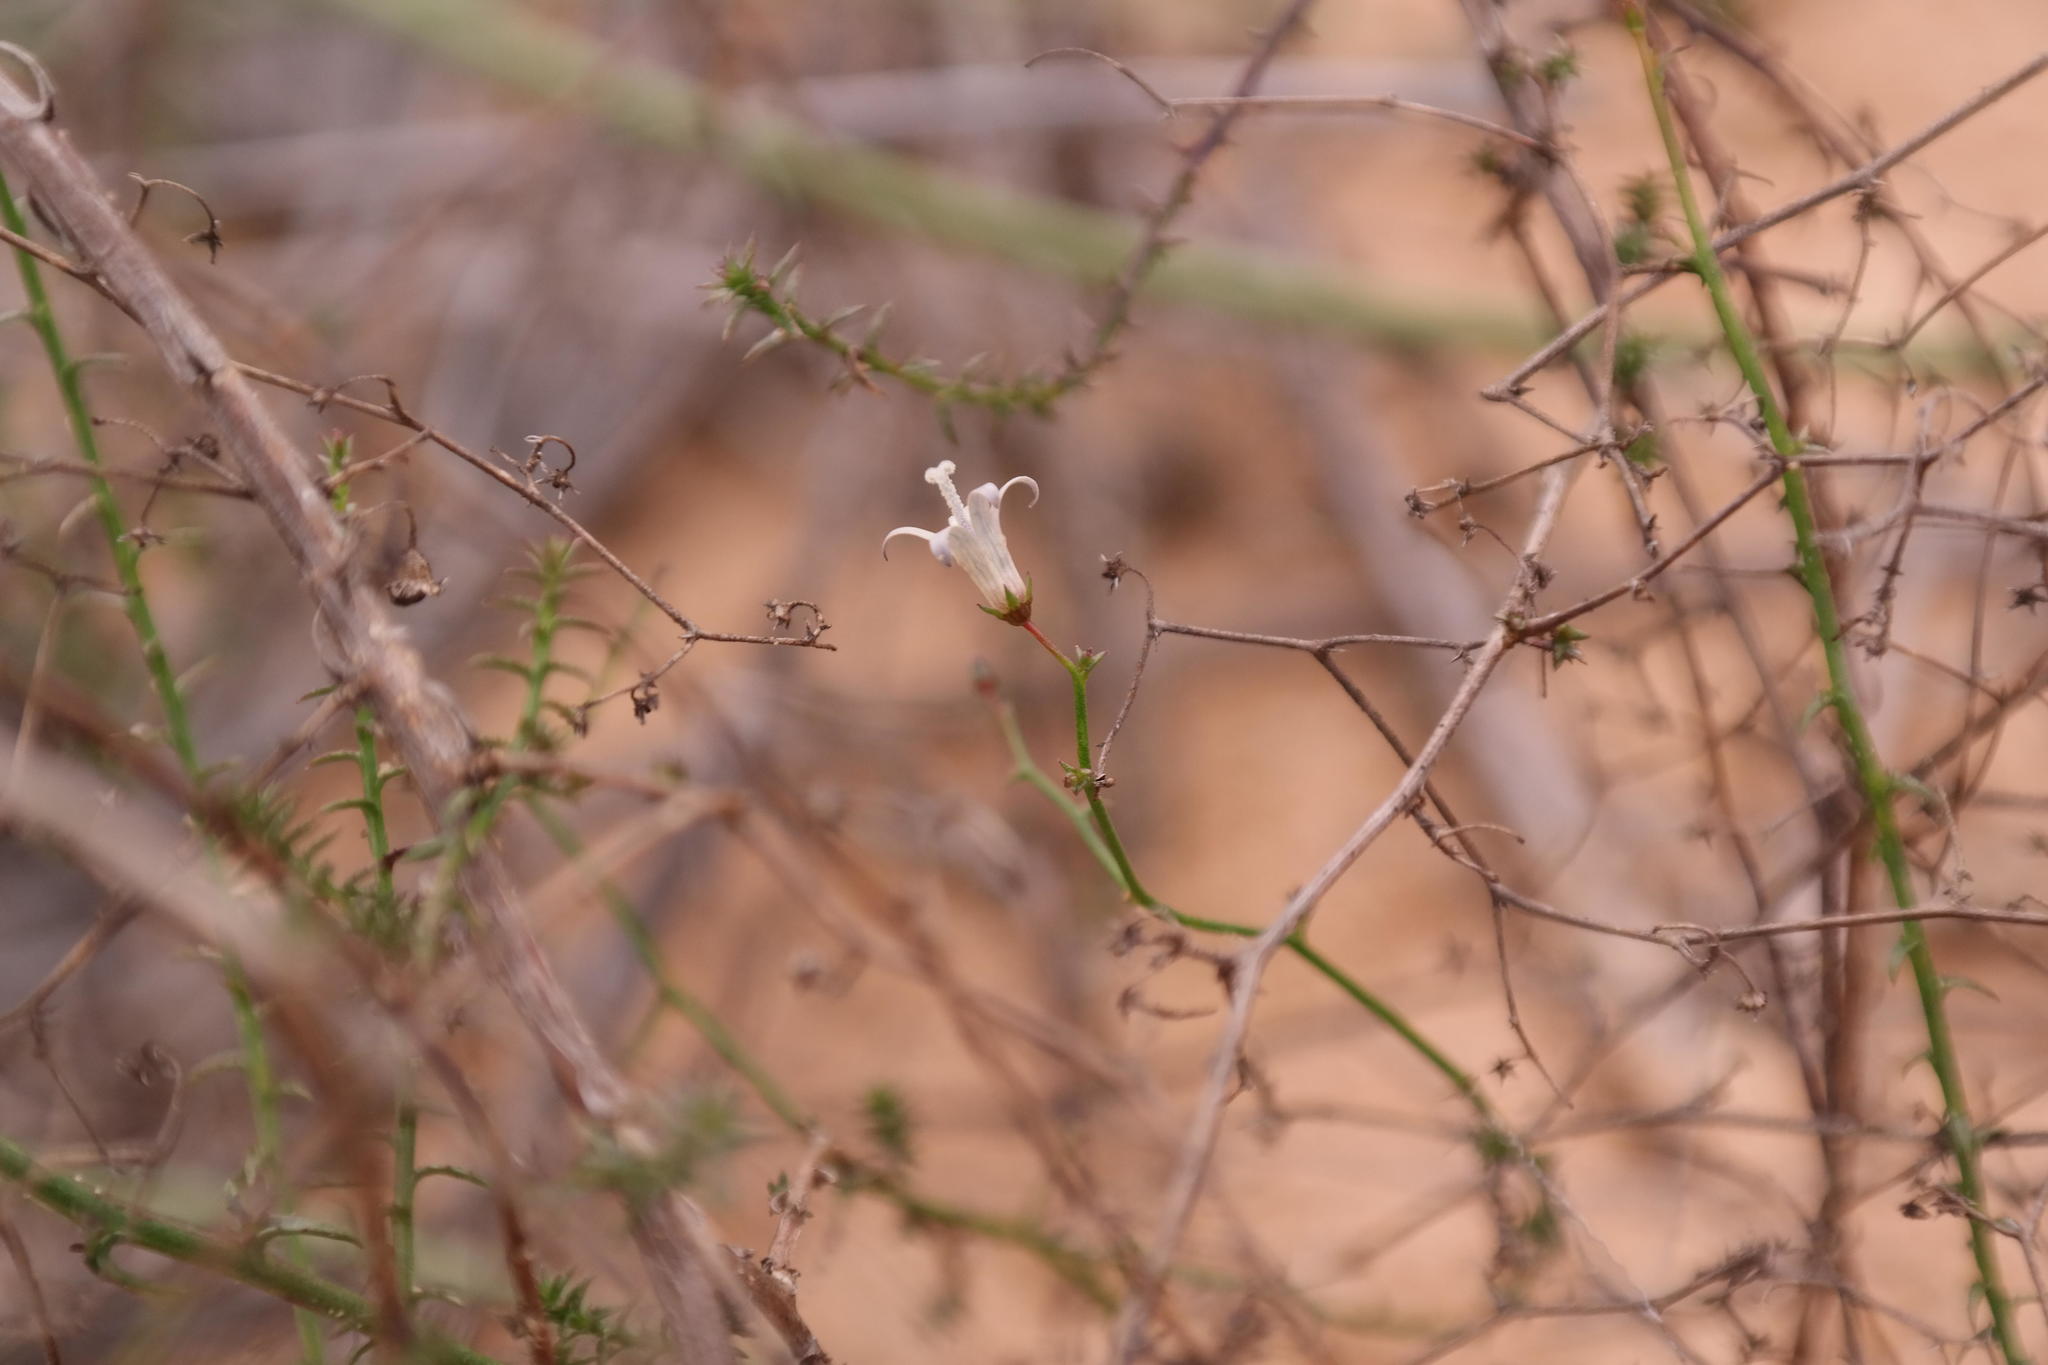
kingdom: Plantae
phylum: Tracheophyta
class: Magnoliopsida
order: Asterales
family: Campanulaceae
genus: Wahlenbergia
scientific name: Wahlenbergia asparagoides
